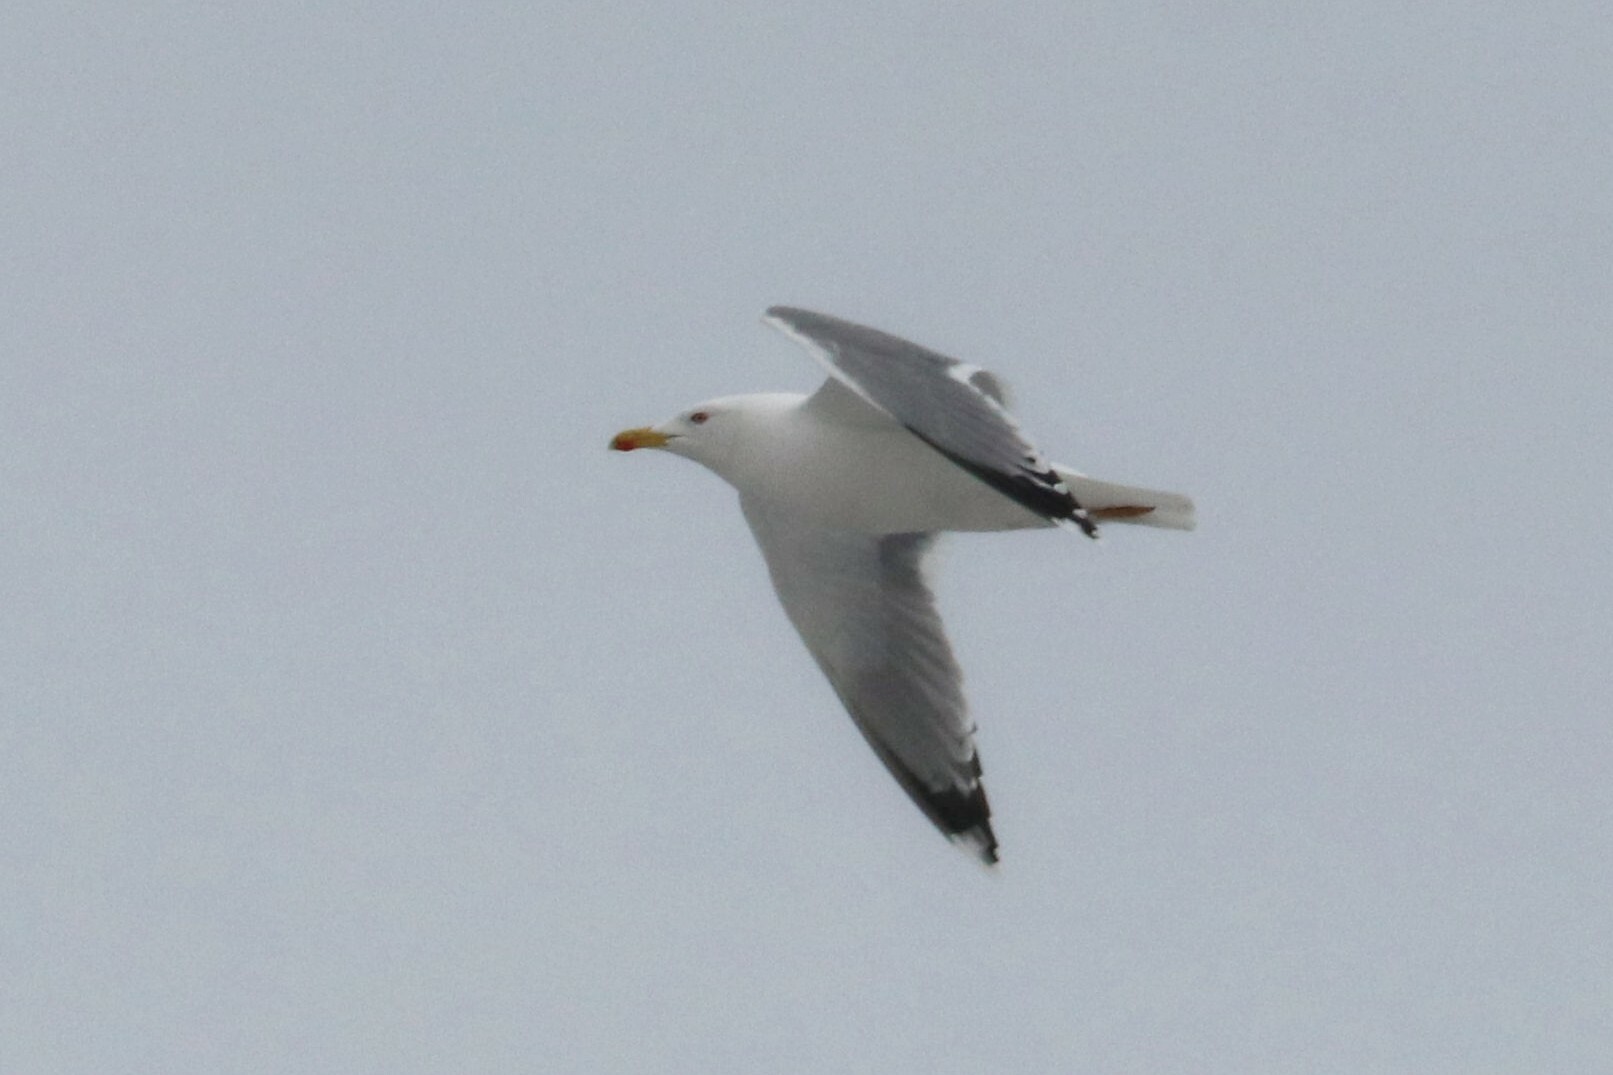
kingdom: Animalia
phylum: Chordata
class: Aves
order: Charadriiformes
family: Laridae
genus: Larus
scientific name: Larus cachinnans
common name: Caspian gull
